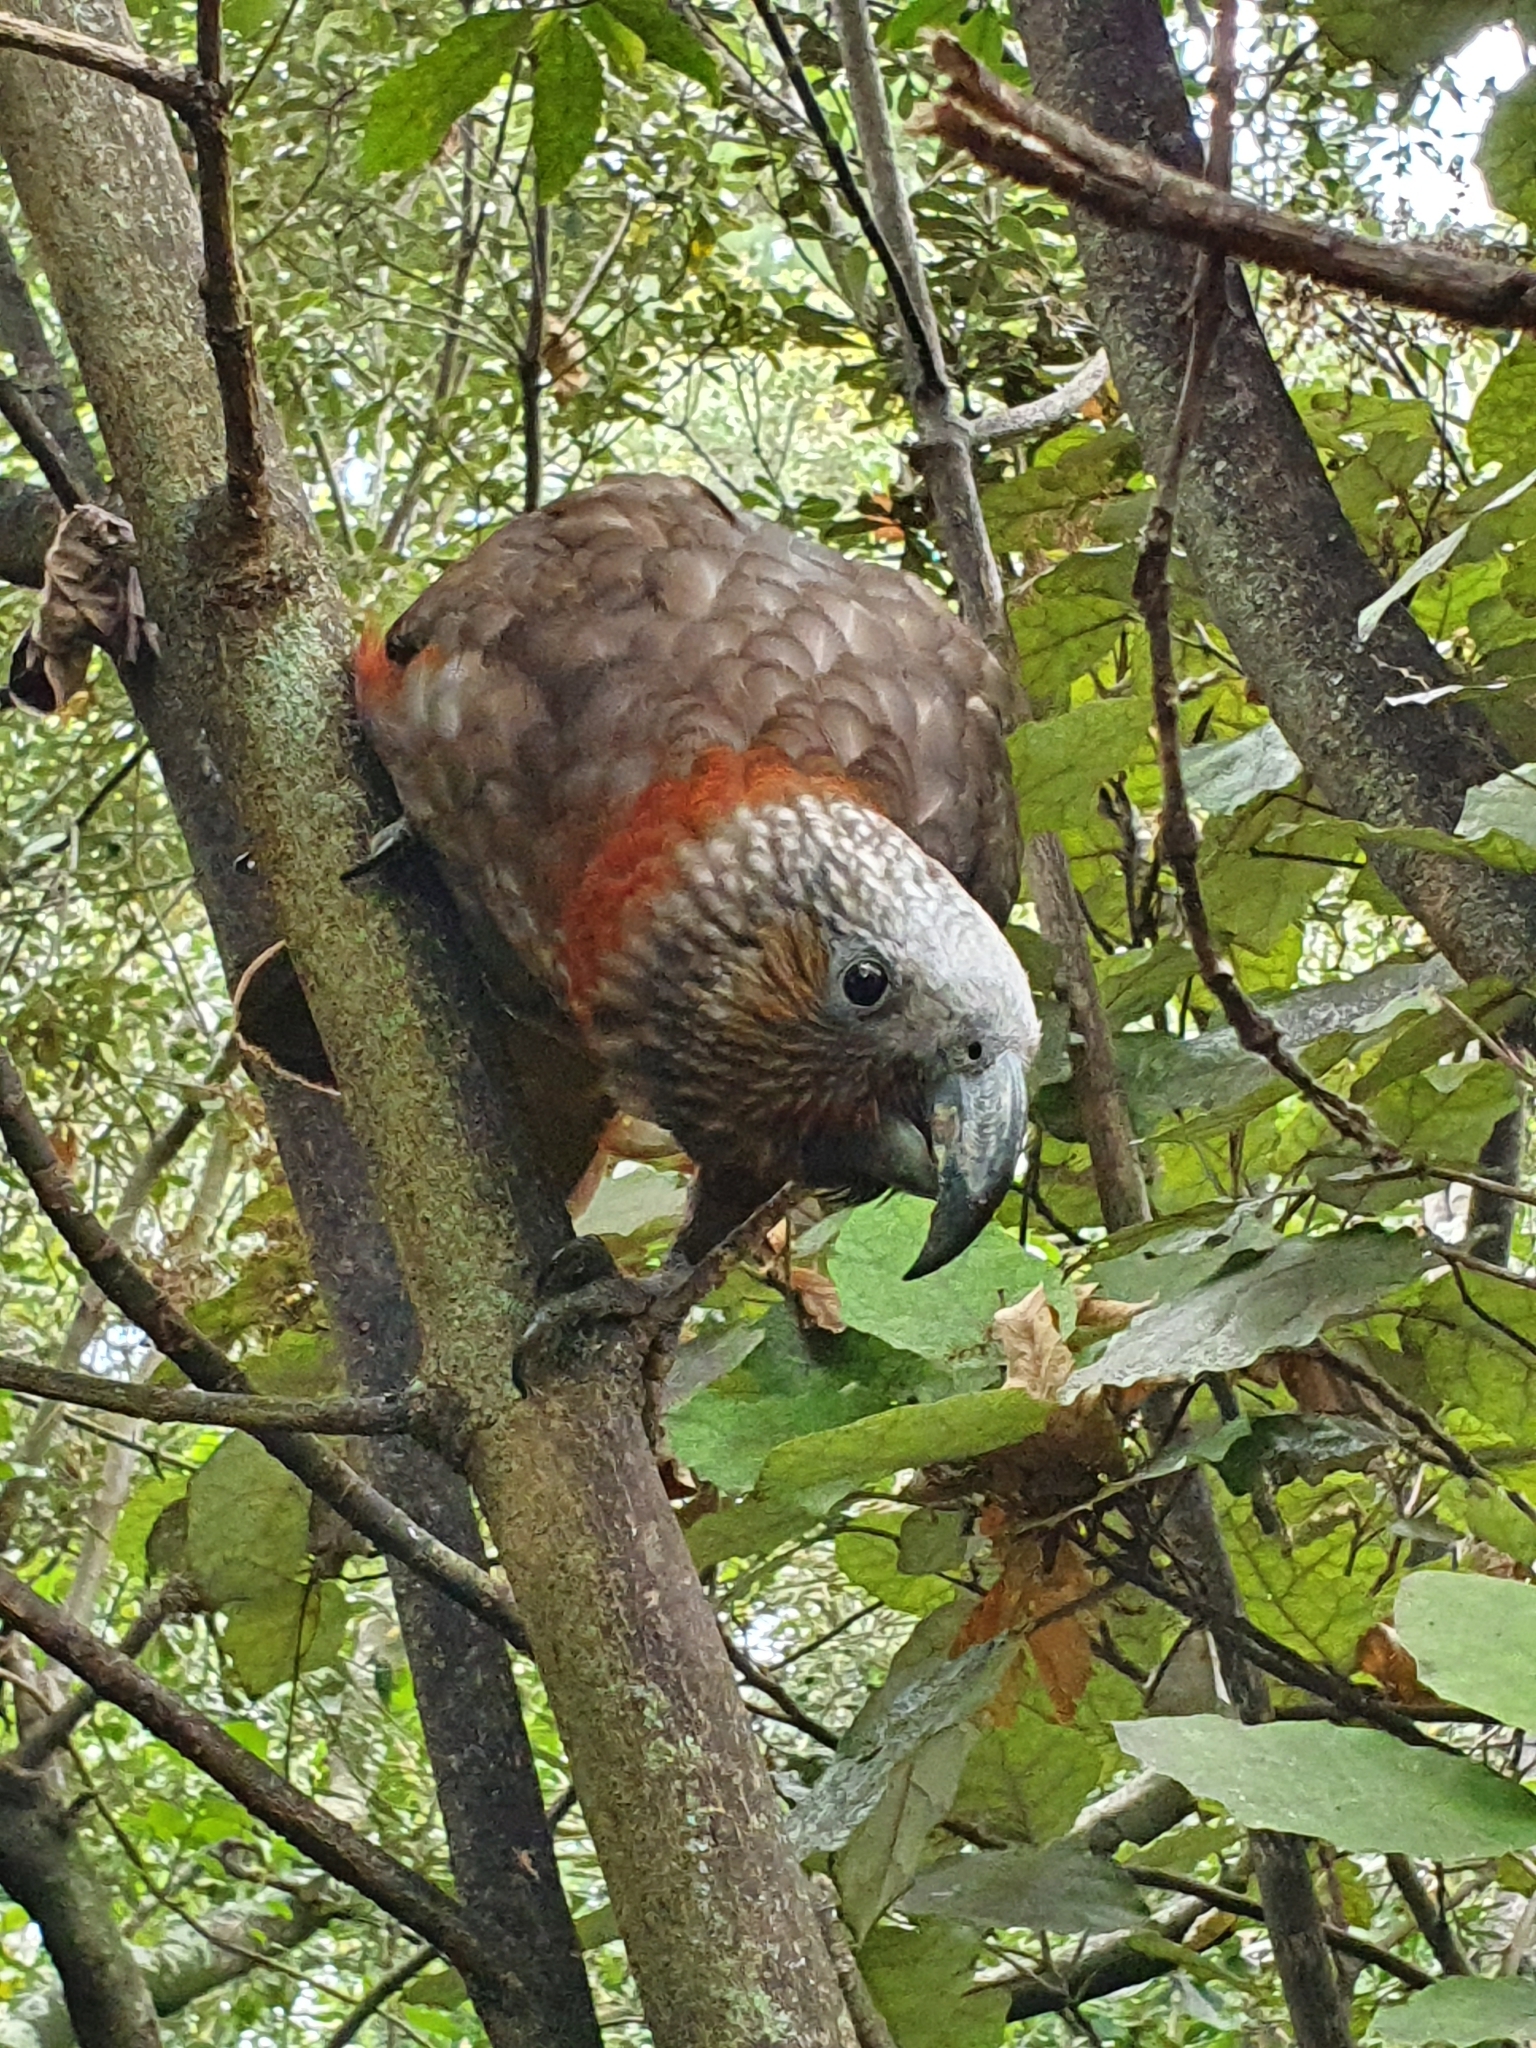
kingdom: Animalia
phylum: Chordata
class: Aves
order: Psittaciformes
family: Psittacidae
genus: Nestor
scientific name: Nestor meridionalis
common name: New zealand kaka
